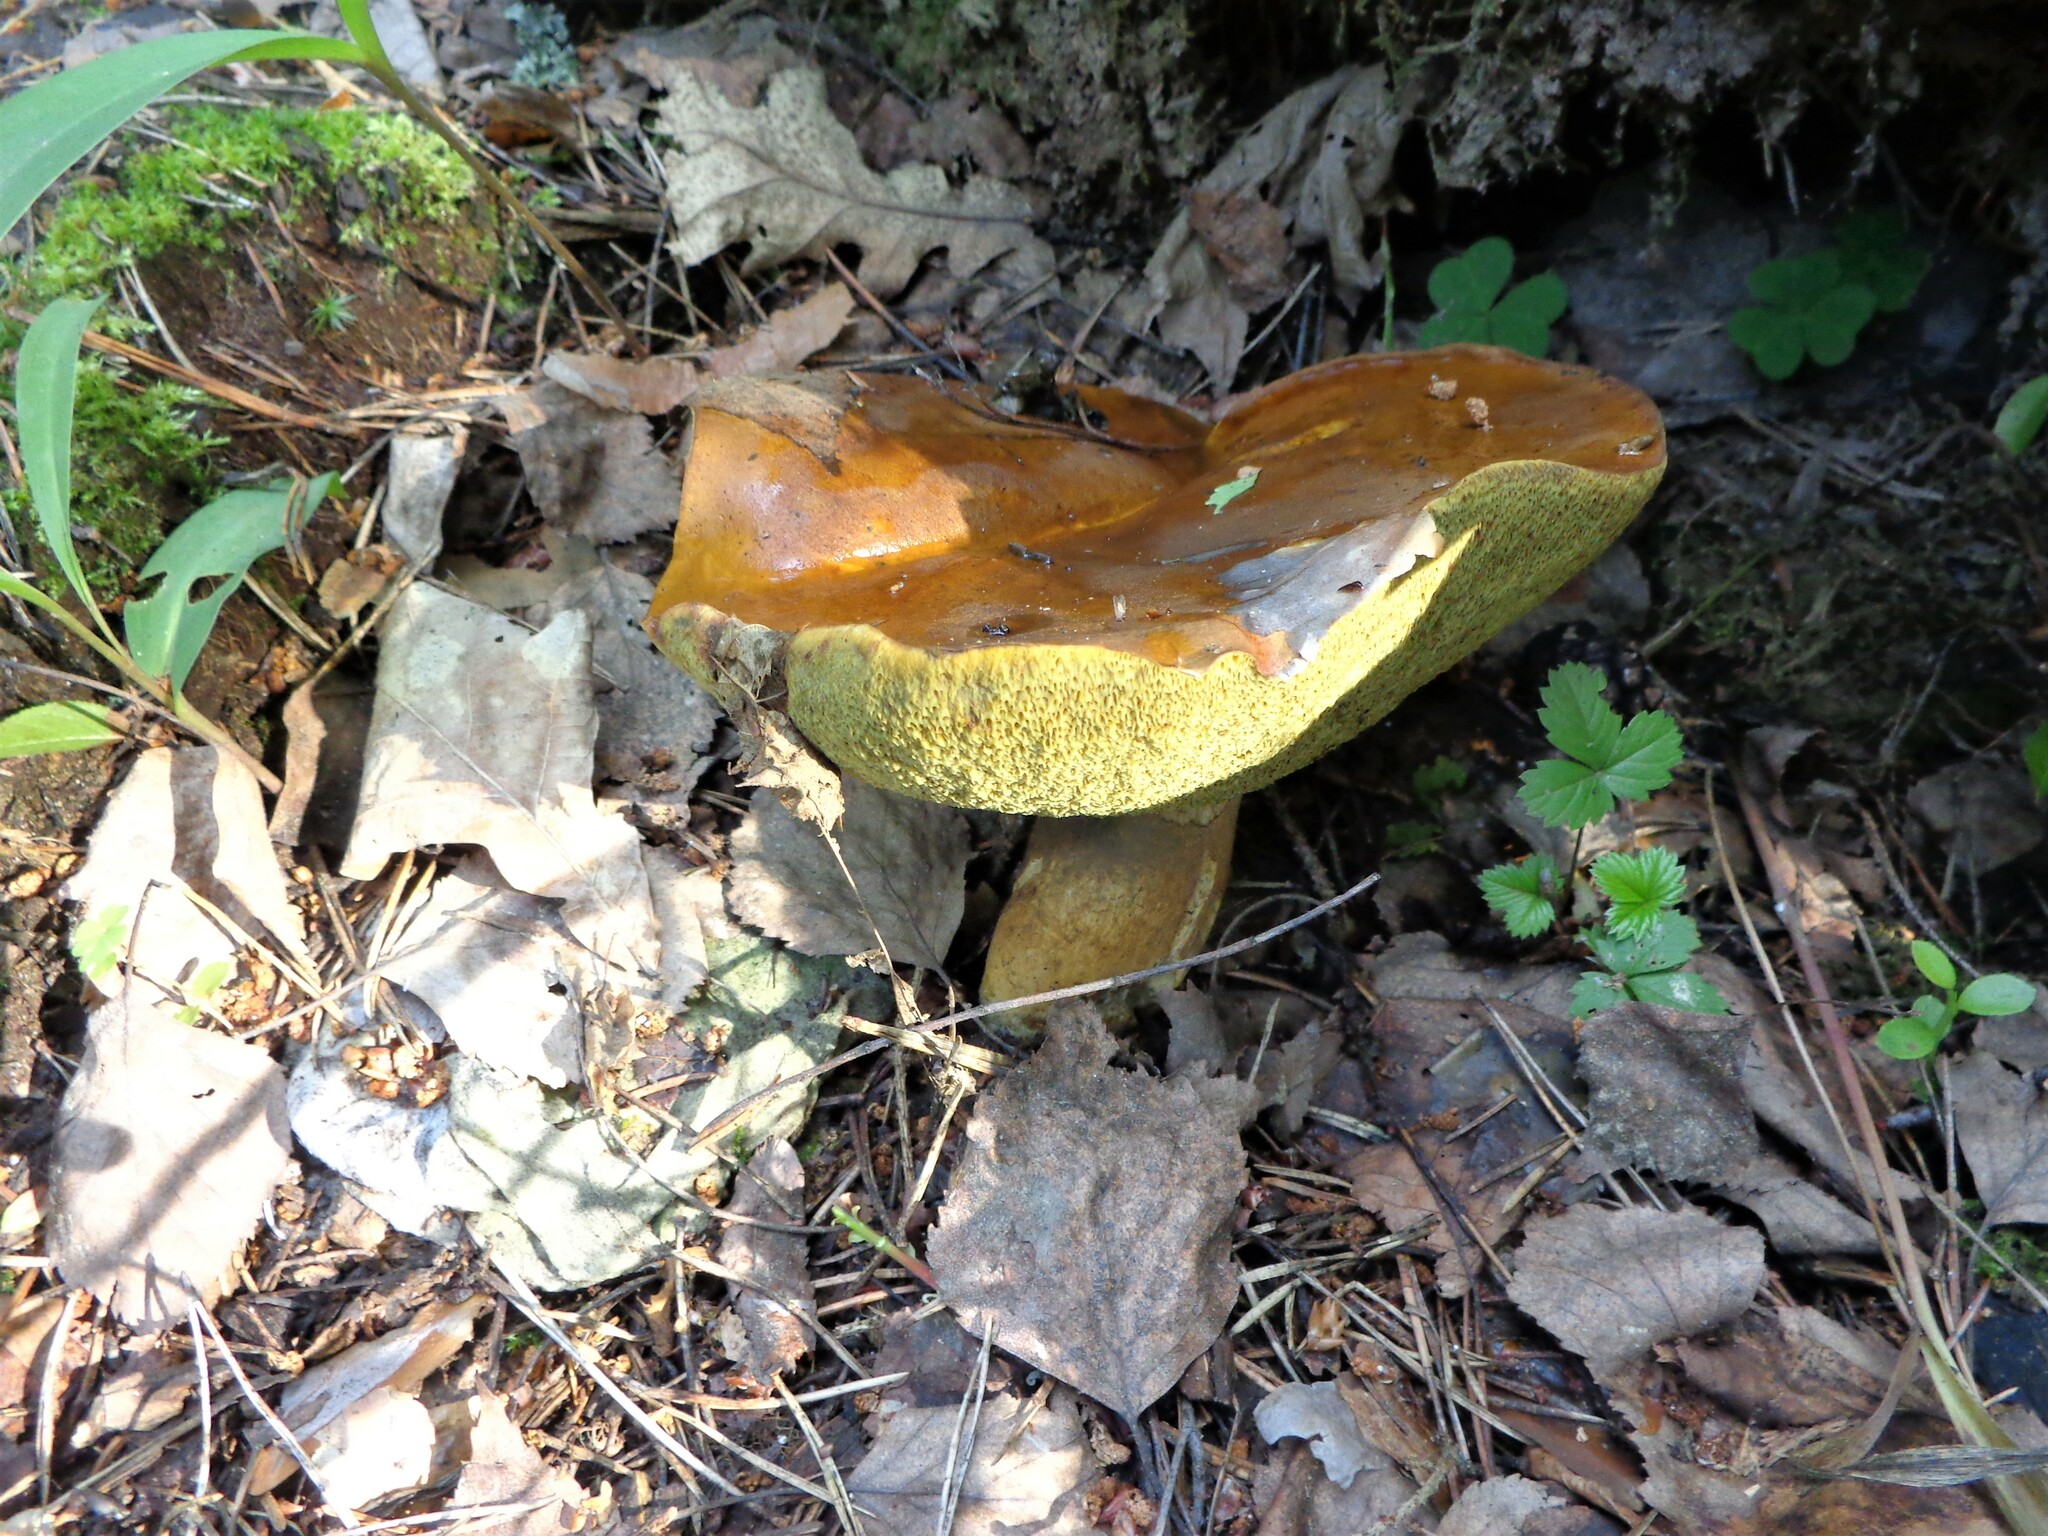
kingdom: Fungi
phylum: Basidiomycota
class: Agaricomycetes
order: Boletales
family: Boletaceae
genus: Imleria
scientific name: Imleria badia
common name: Bay bolete
